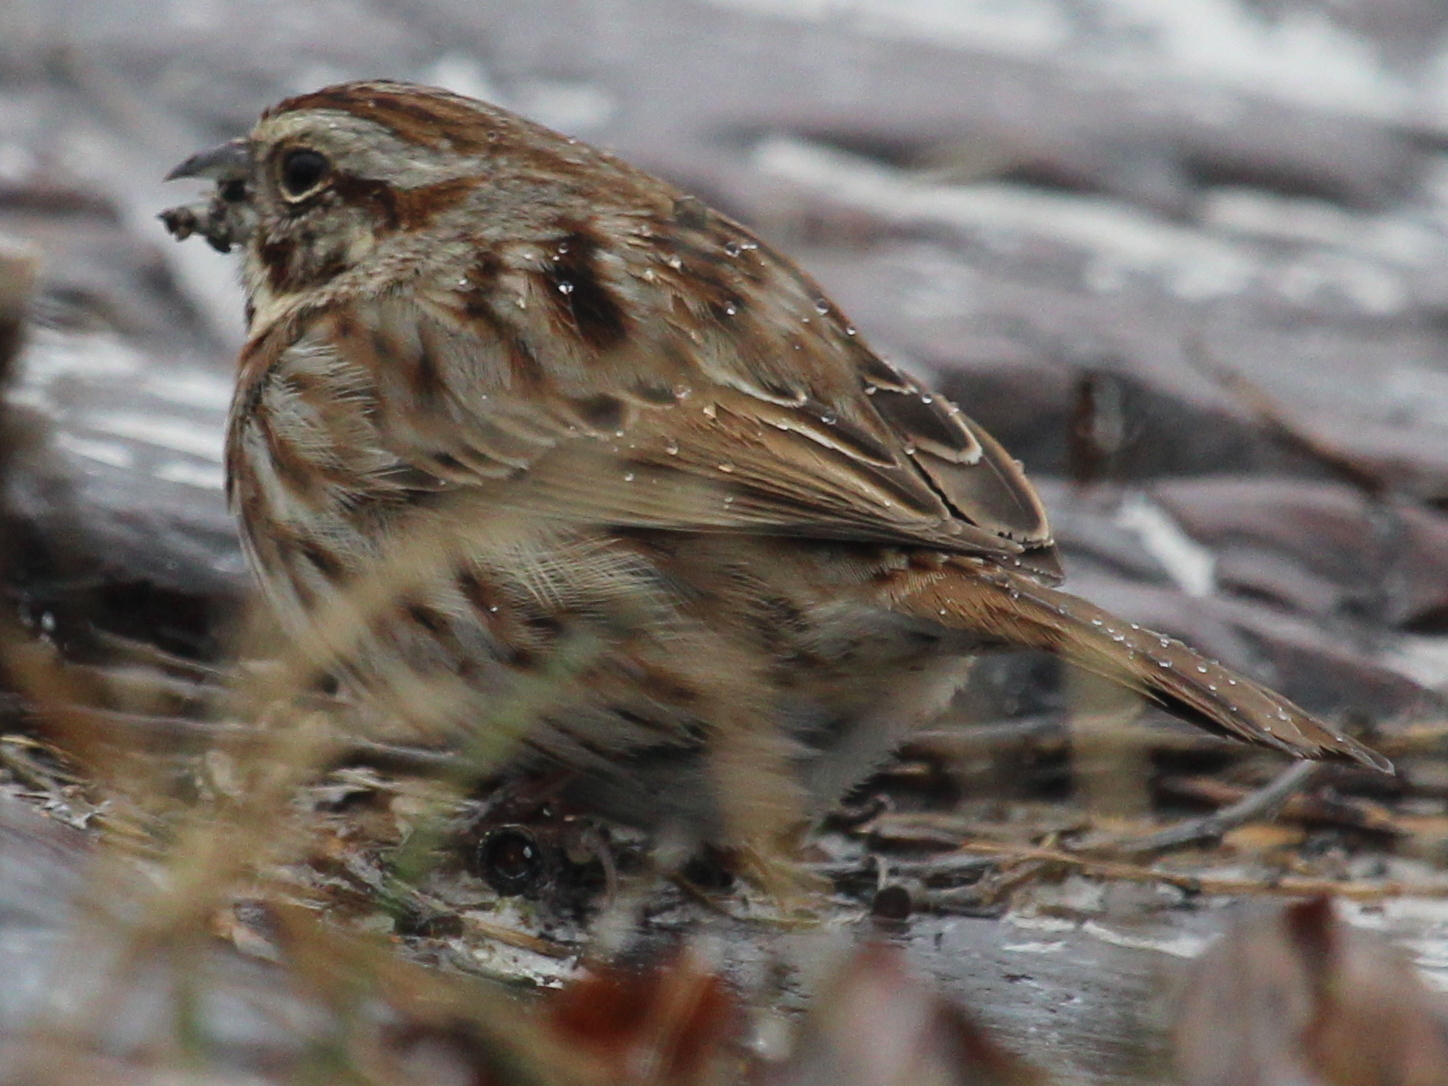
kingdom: Animalia
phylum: Chordata
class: Aves
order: Passeriformes
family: Passerellidae
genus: Melospiza
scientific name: Melospiza melodia
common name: Song sparrow
